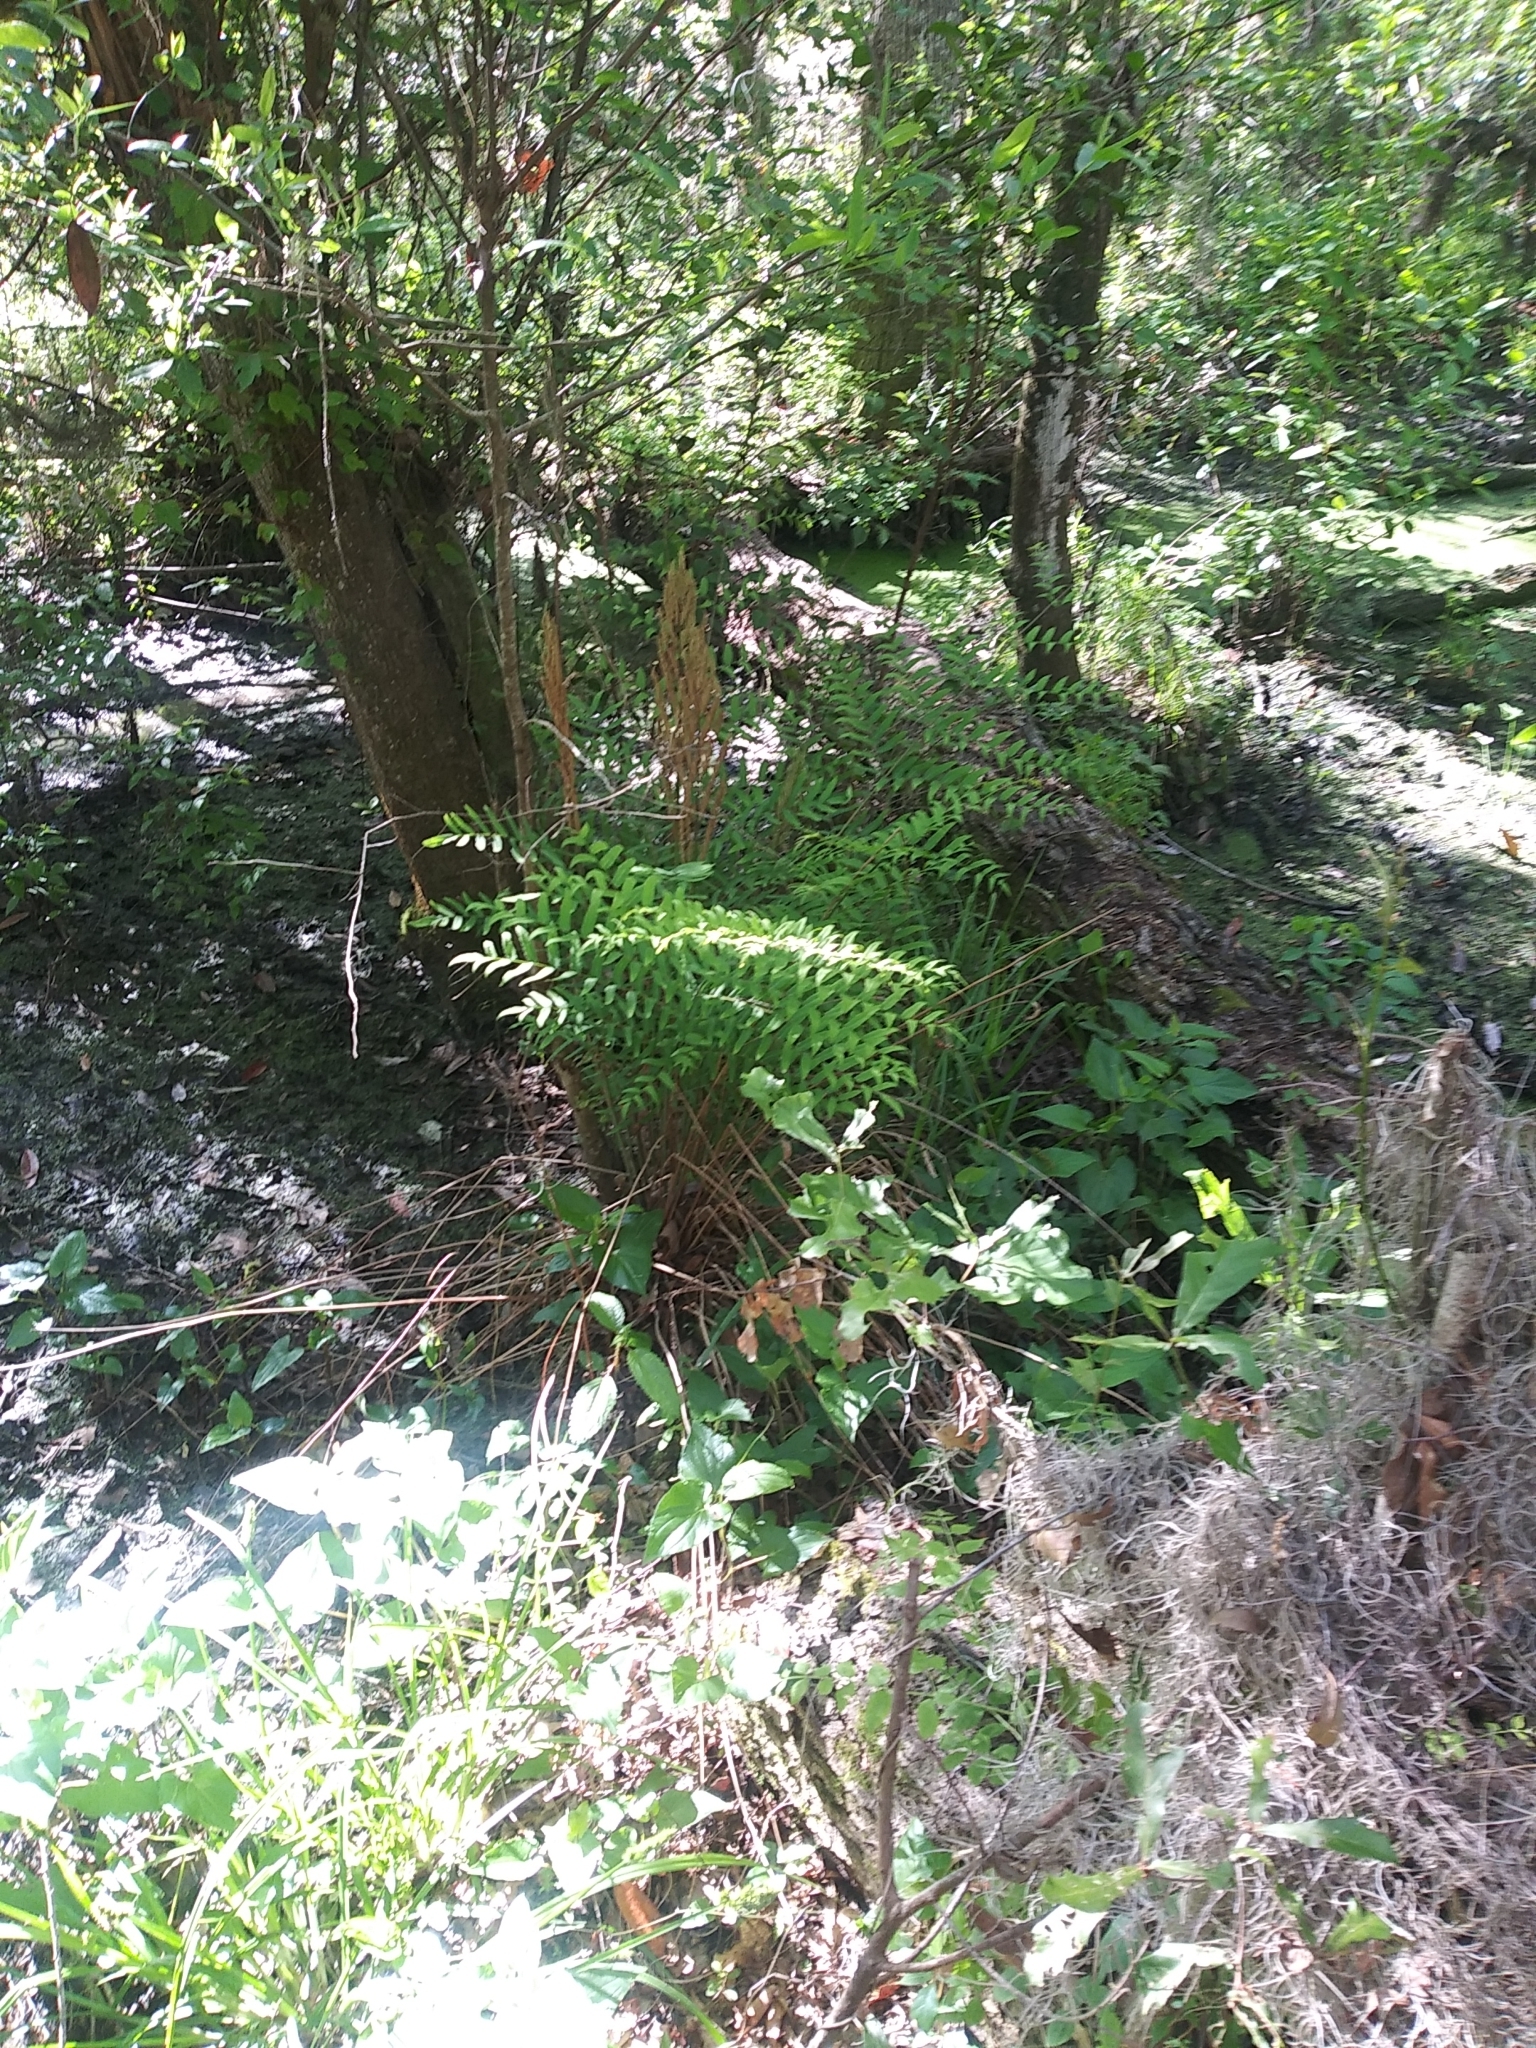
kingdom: Plantae
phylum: Tracheophyta
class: Polypodiopsida
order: Osmundales
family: Osmundaceae
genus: Osmunda
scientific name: Osmunda spectabilis
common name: American royal fern
